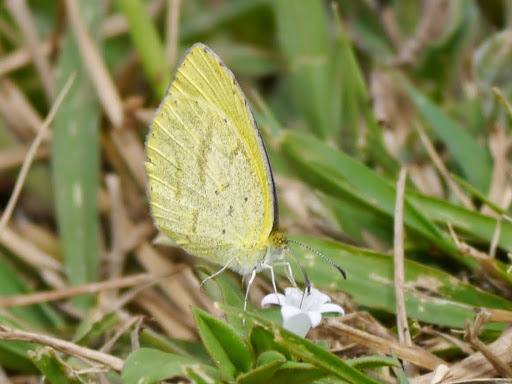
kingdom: Animalia
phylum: Arthropoda
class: Insecta
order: Lepidoptera
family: Pieridae
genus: Eurema
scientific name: Eurema brigitta
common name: Small grass yellow
